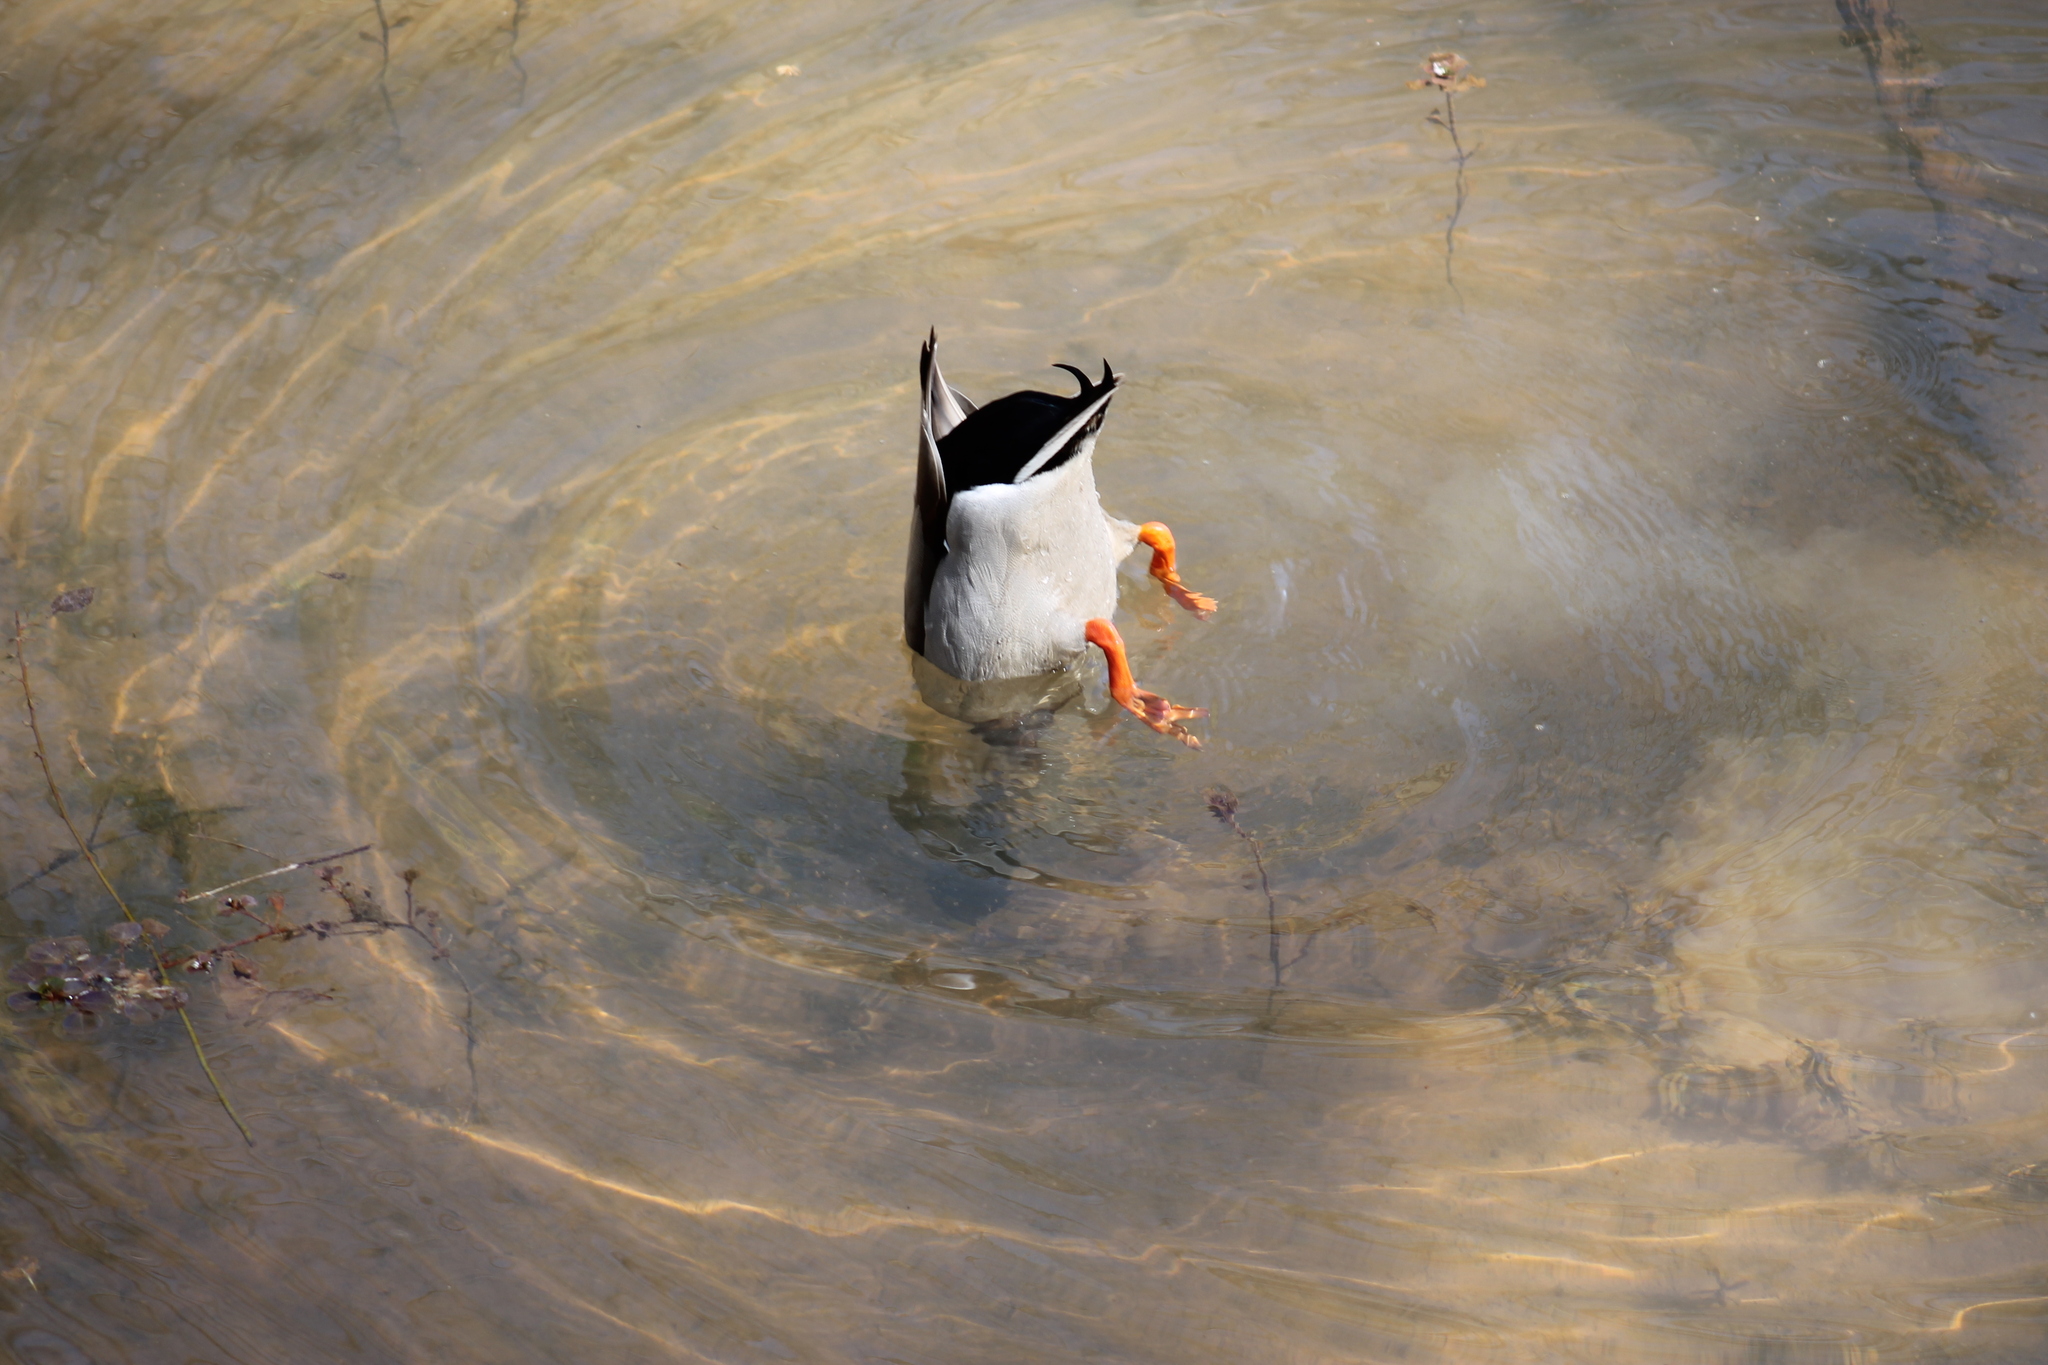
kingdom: Animalia
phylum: Chordata
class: Aves
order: Anseriformes
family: Anatidae
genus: Anas
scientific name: Anas platyrhynchos
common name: Mallard
